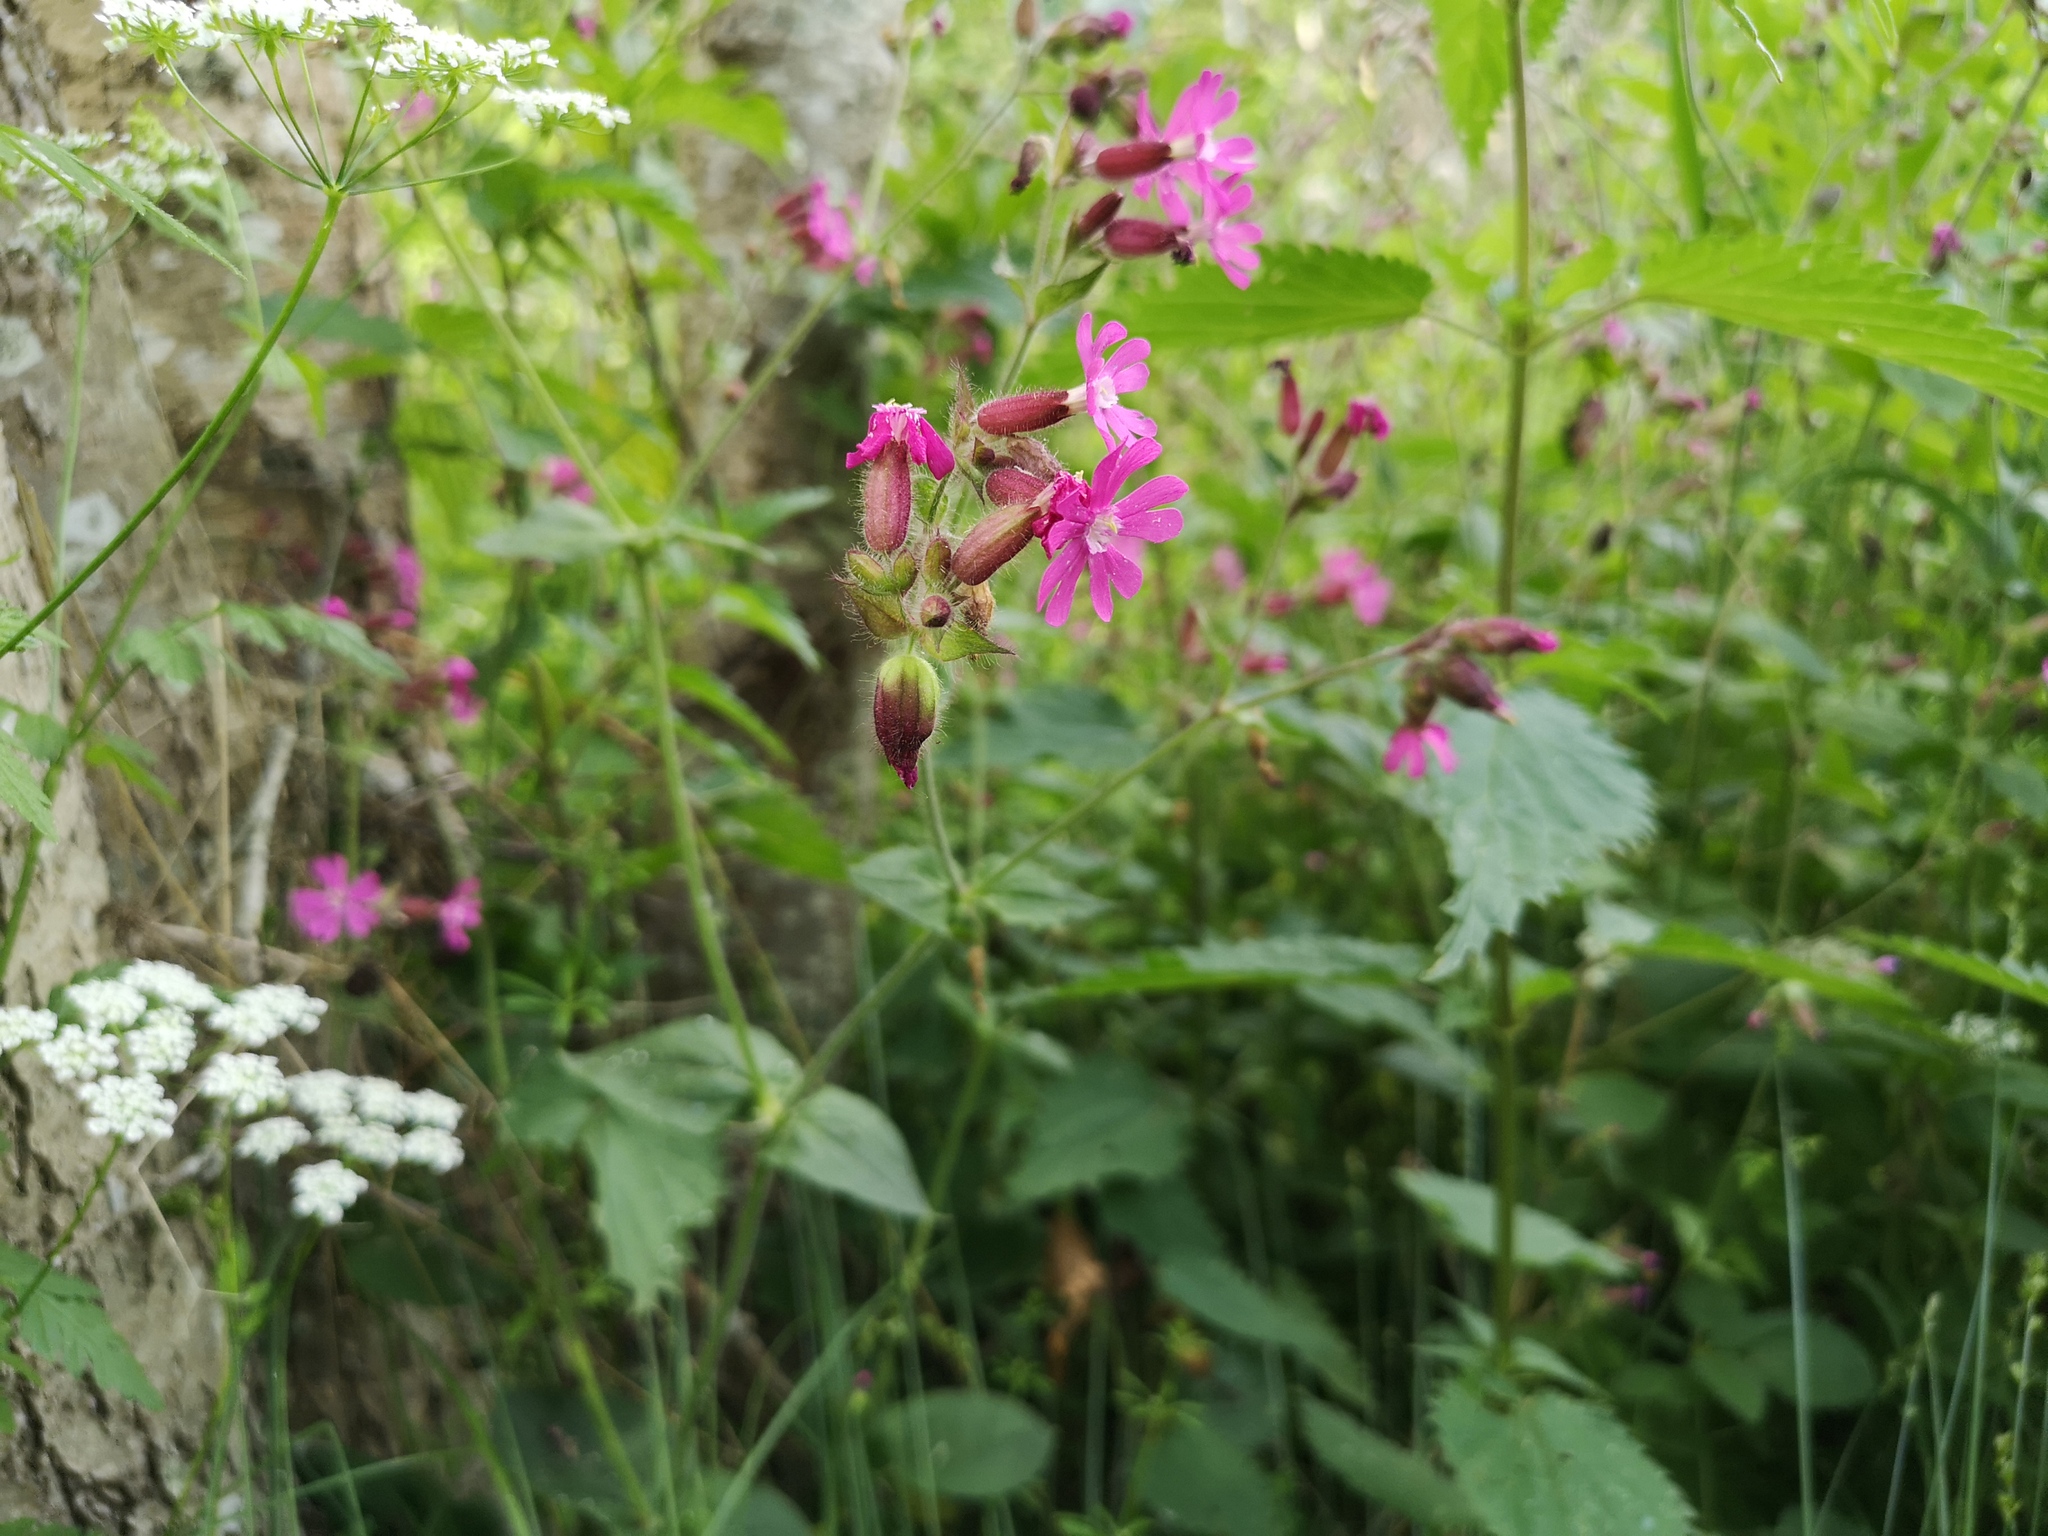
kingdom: Plantae
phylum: Tracheophyta
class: Magnoliopsida
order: Caryophyllales
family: Caryophyllaceae
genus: Silene
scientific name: Silene dioica
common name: Red campion
